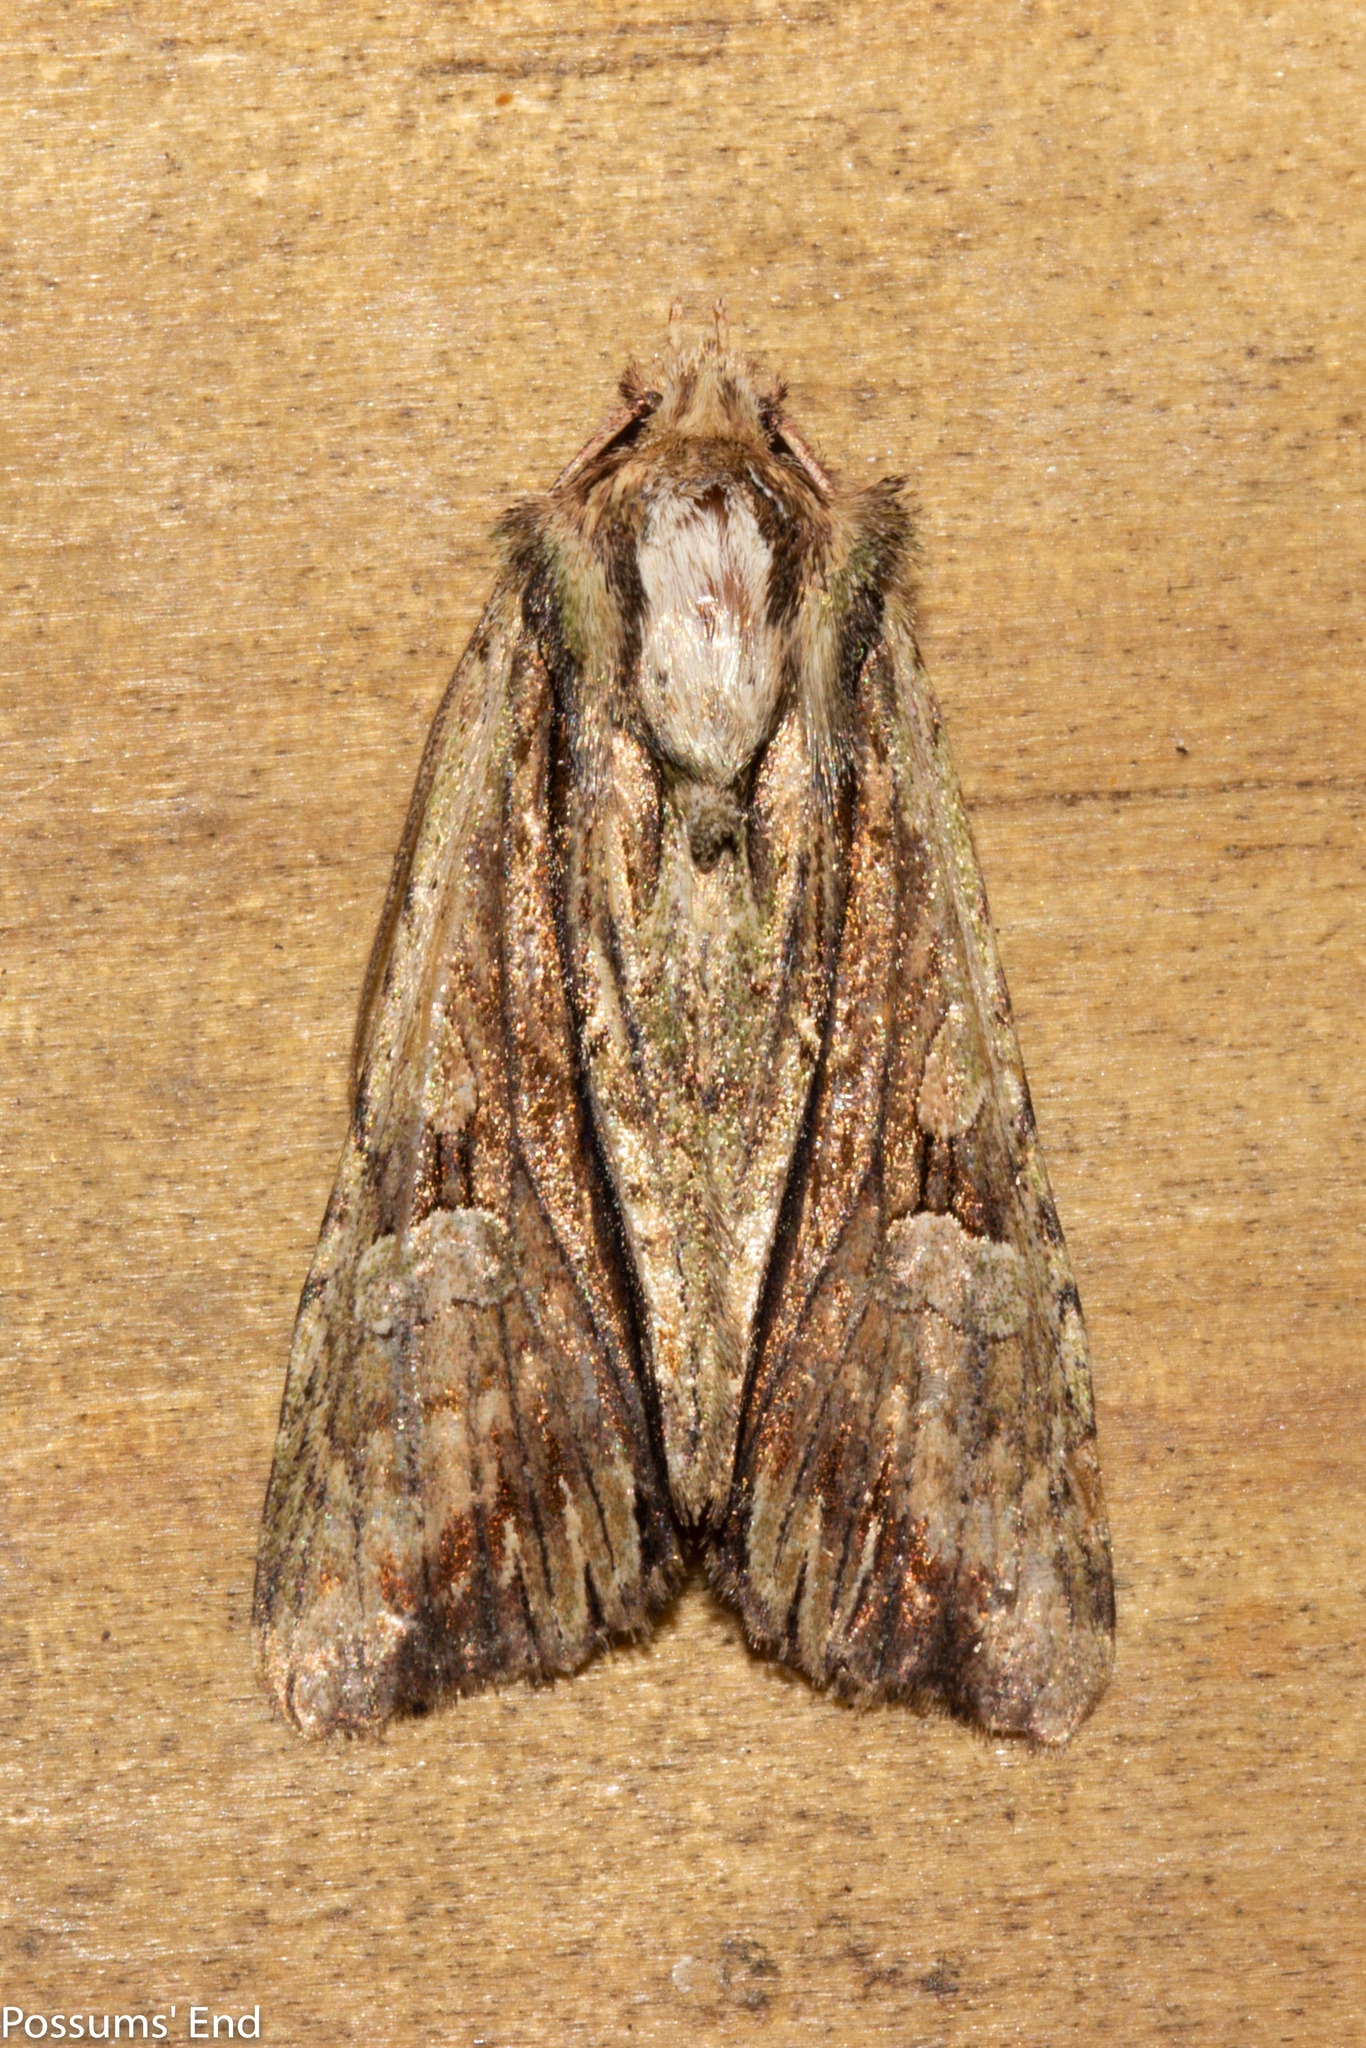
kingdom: Animalia
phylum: Arthropoda
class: Insecta
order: Lepidoptera
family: Noctuidae
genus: Meterana
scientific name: Meterana decorata
